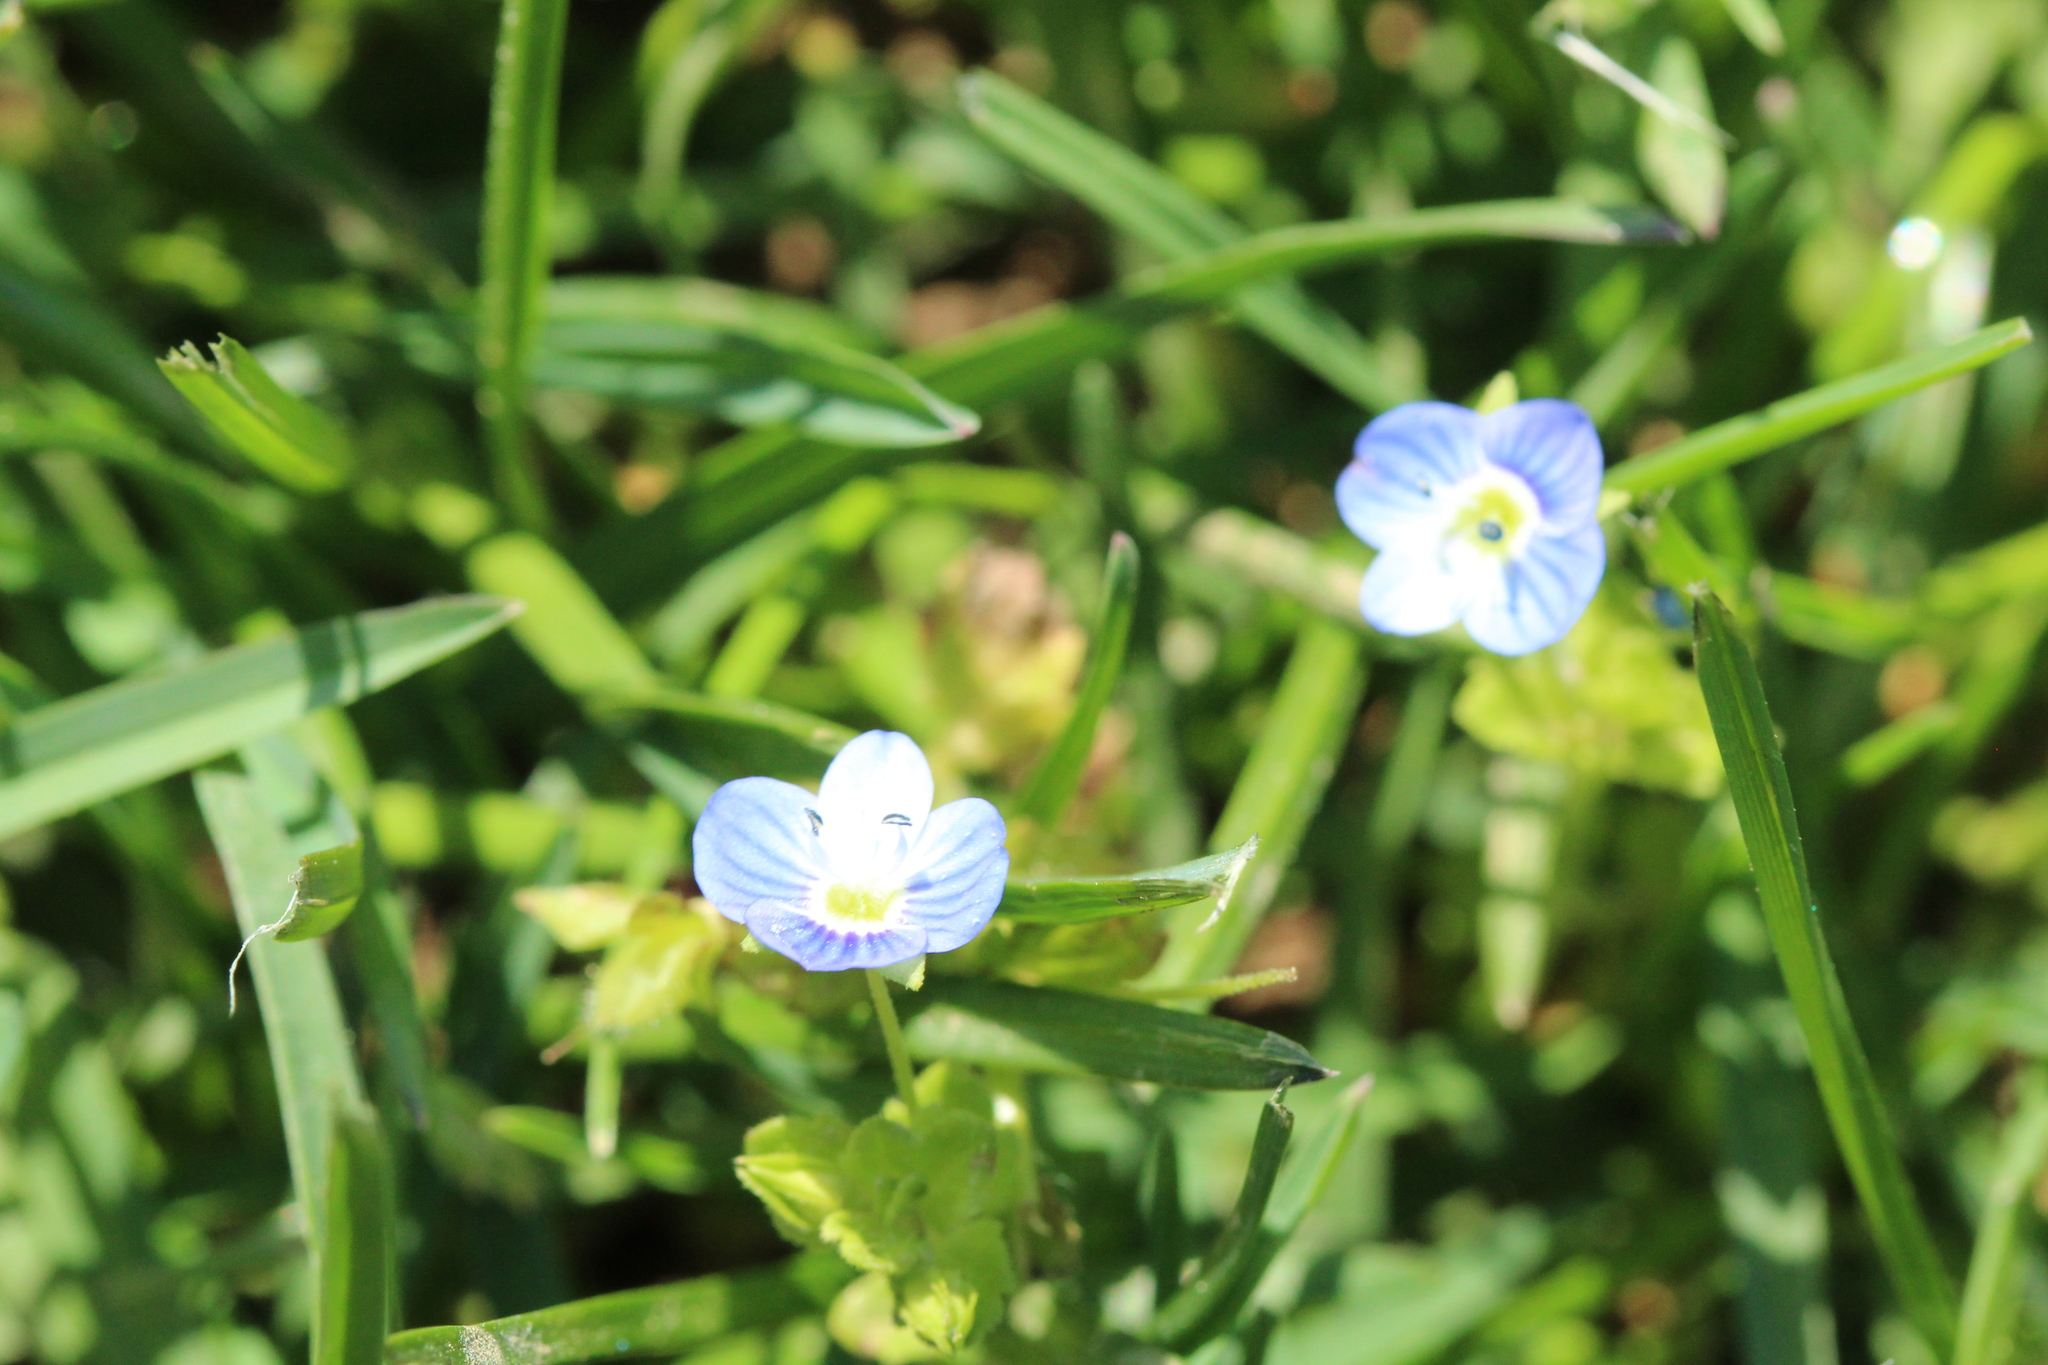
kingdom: Plantae
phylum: Tracheophyta
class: Magnoliopsida
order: Lamiales
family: Plantaginaceae
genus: Veronica
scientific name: Veronica persica
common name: Common field-speedwell
